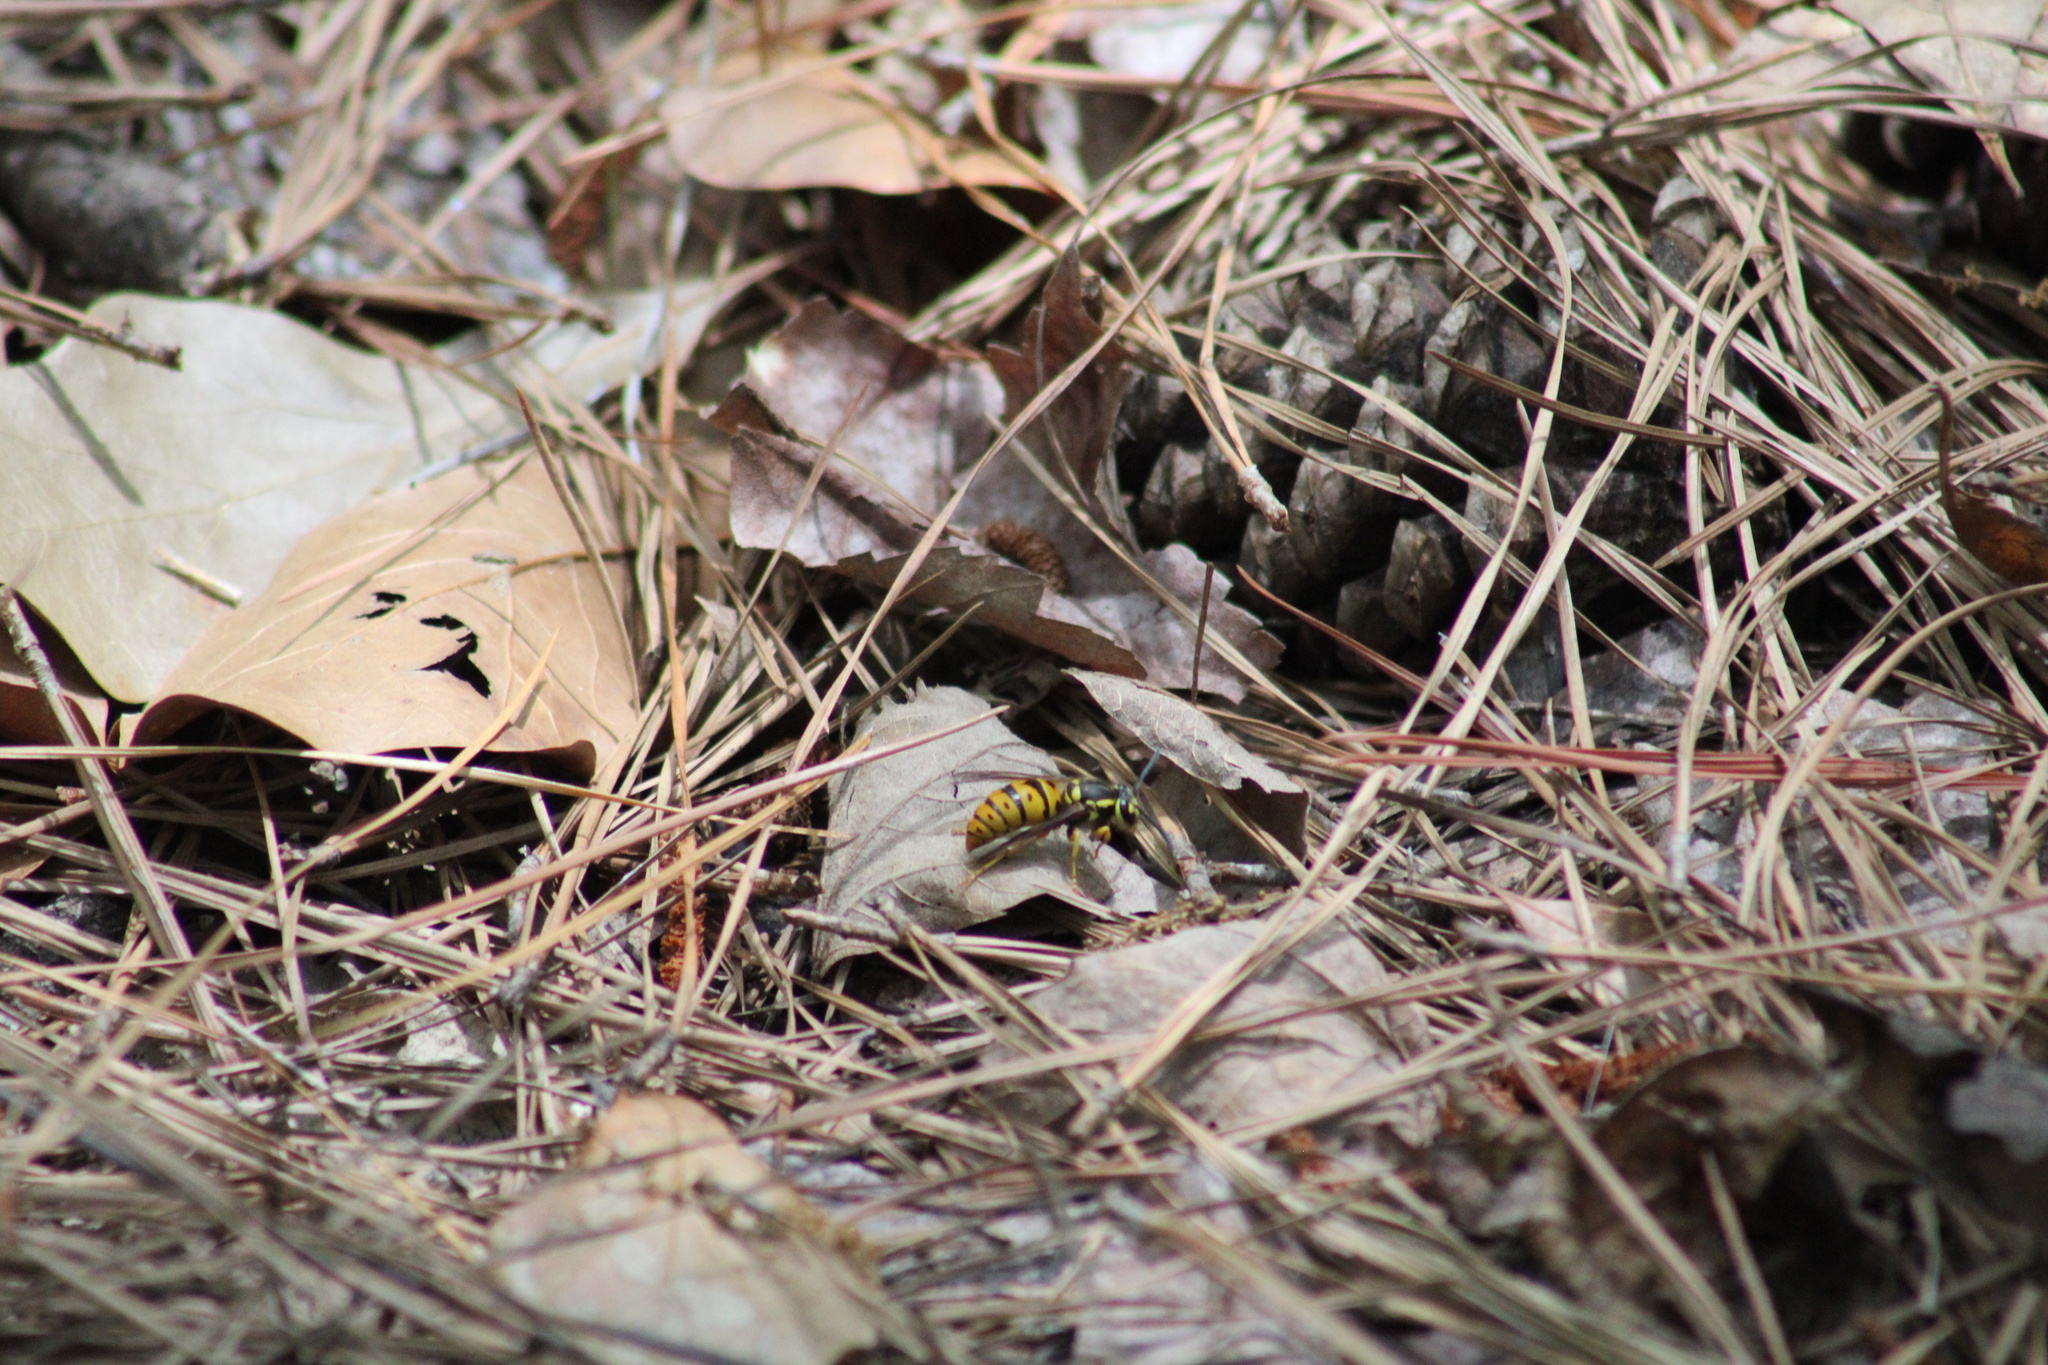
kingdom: Animalia
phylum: Arthropoda
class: Insecta
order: Hymenoptera
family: Vespidae
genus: Vespula
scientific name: Vespula maculifrons
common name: Eastern yellowjacket
